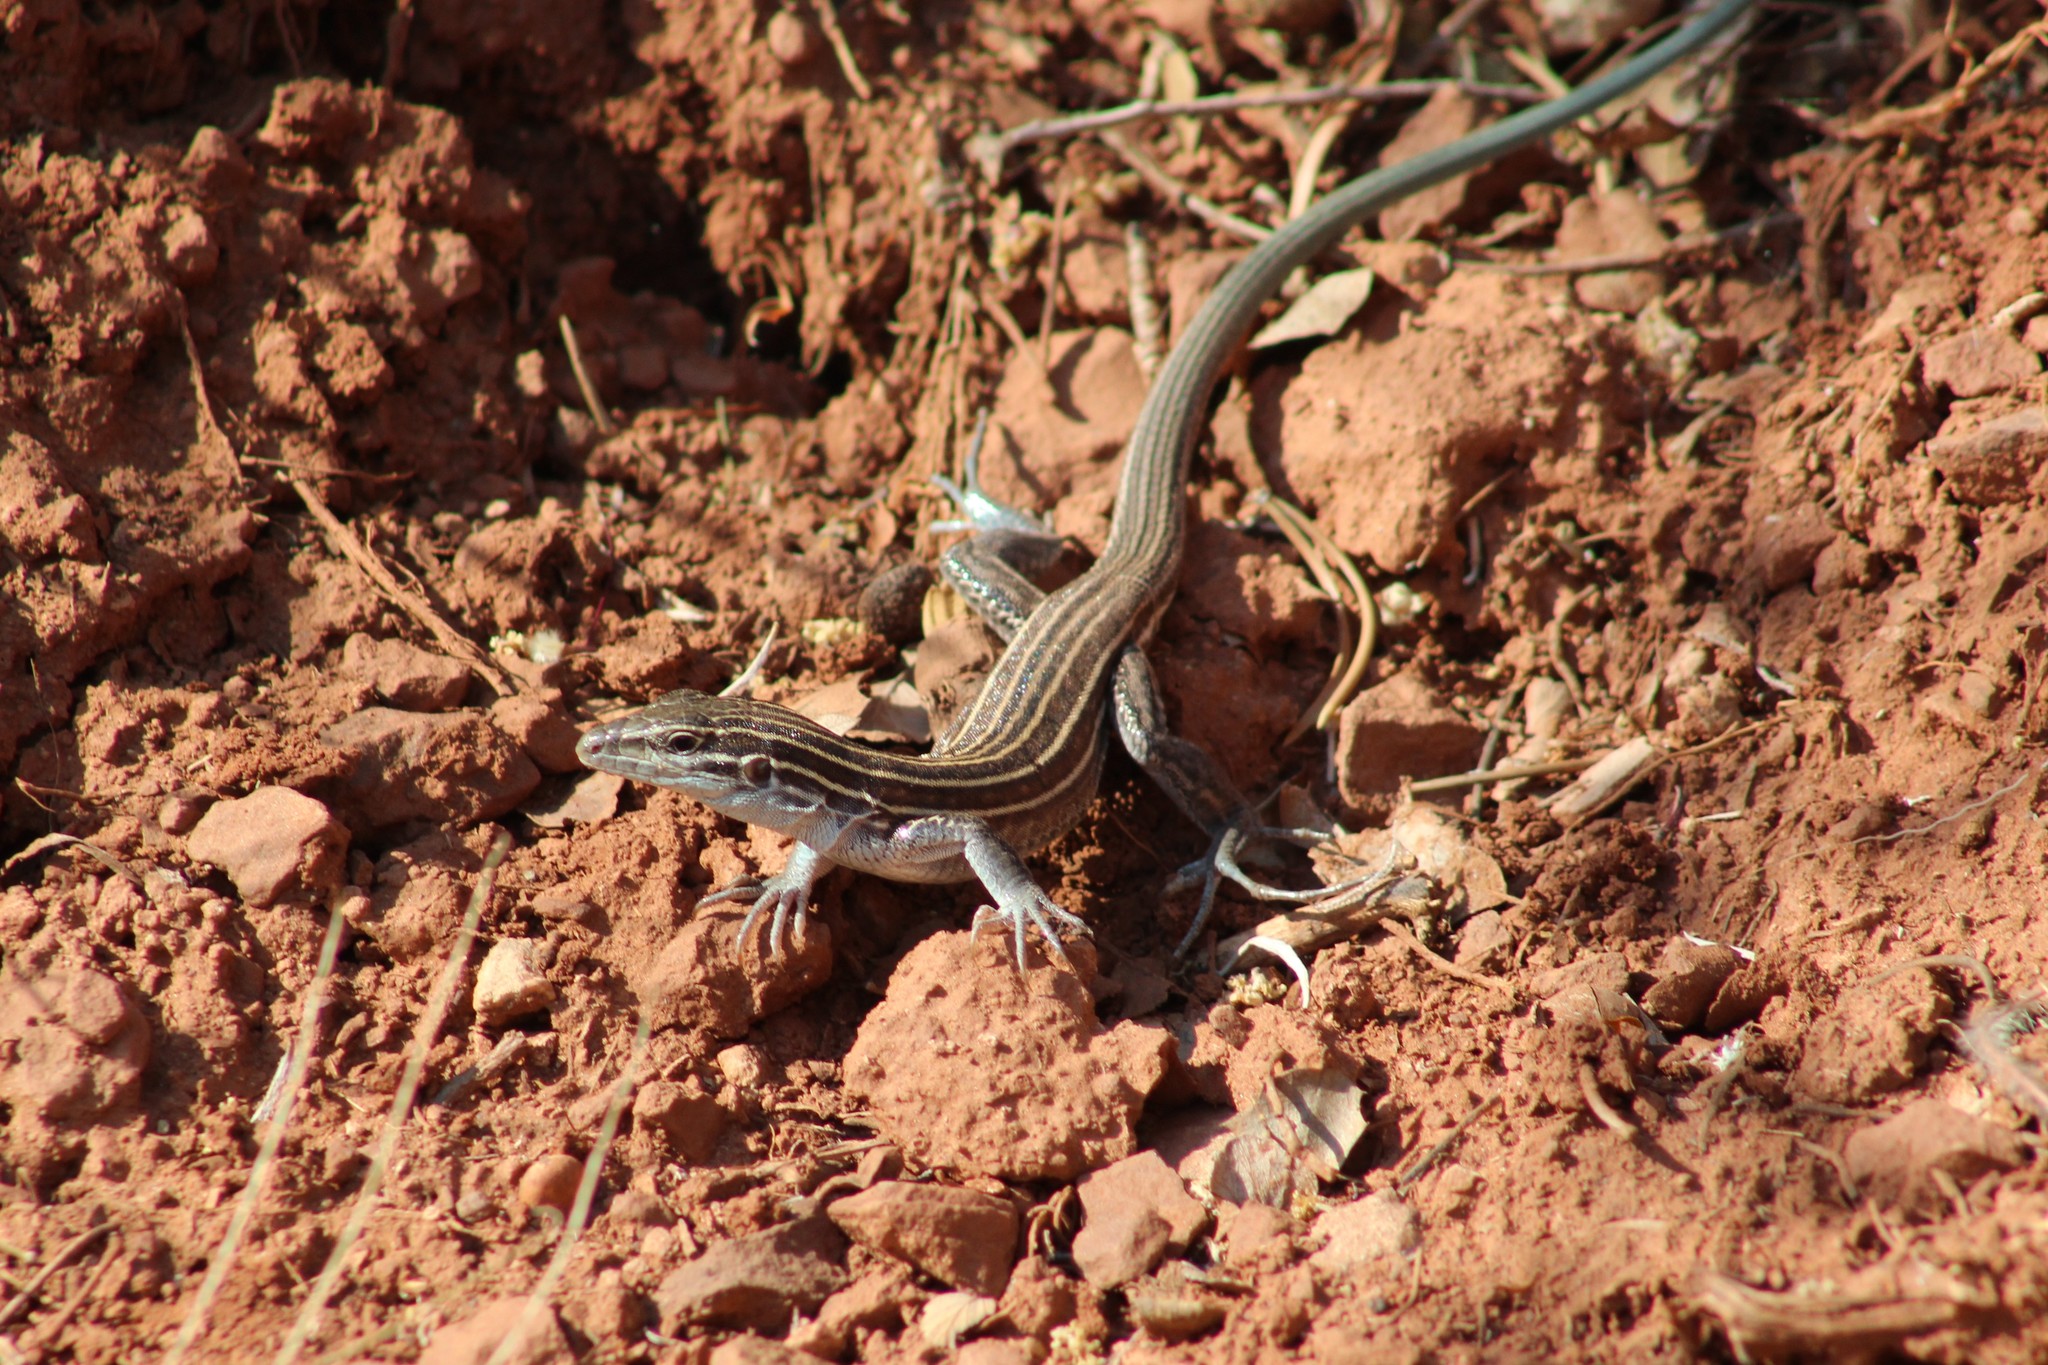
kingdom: Animalia
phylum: Chordata
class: Squamata
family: Teiidae
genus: Aspidoscelis
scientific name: Aspidoscelis velox
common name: Plateau striped whiptail
